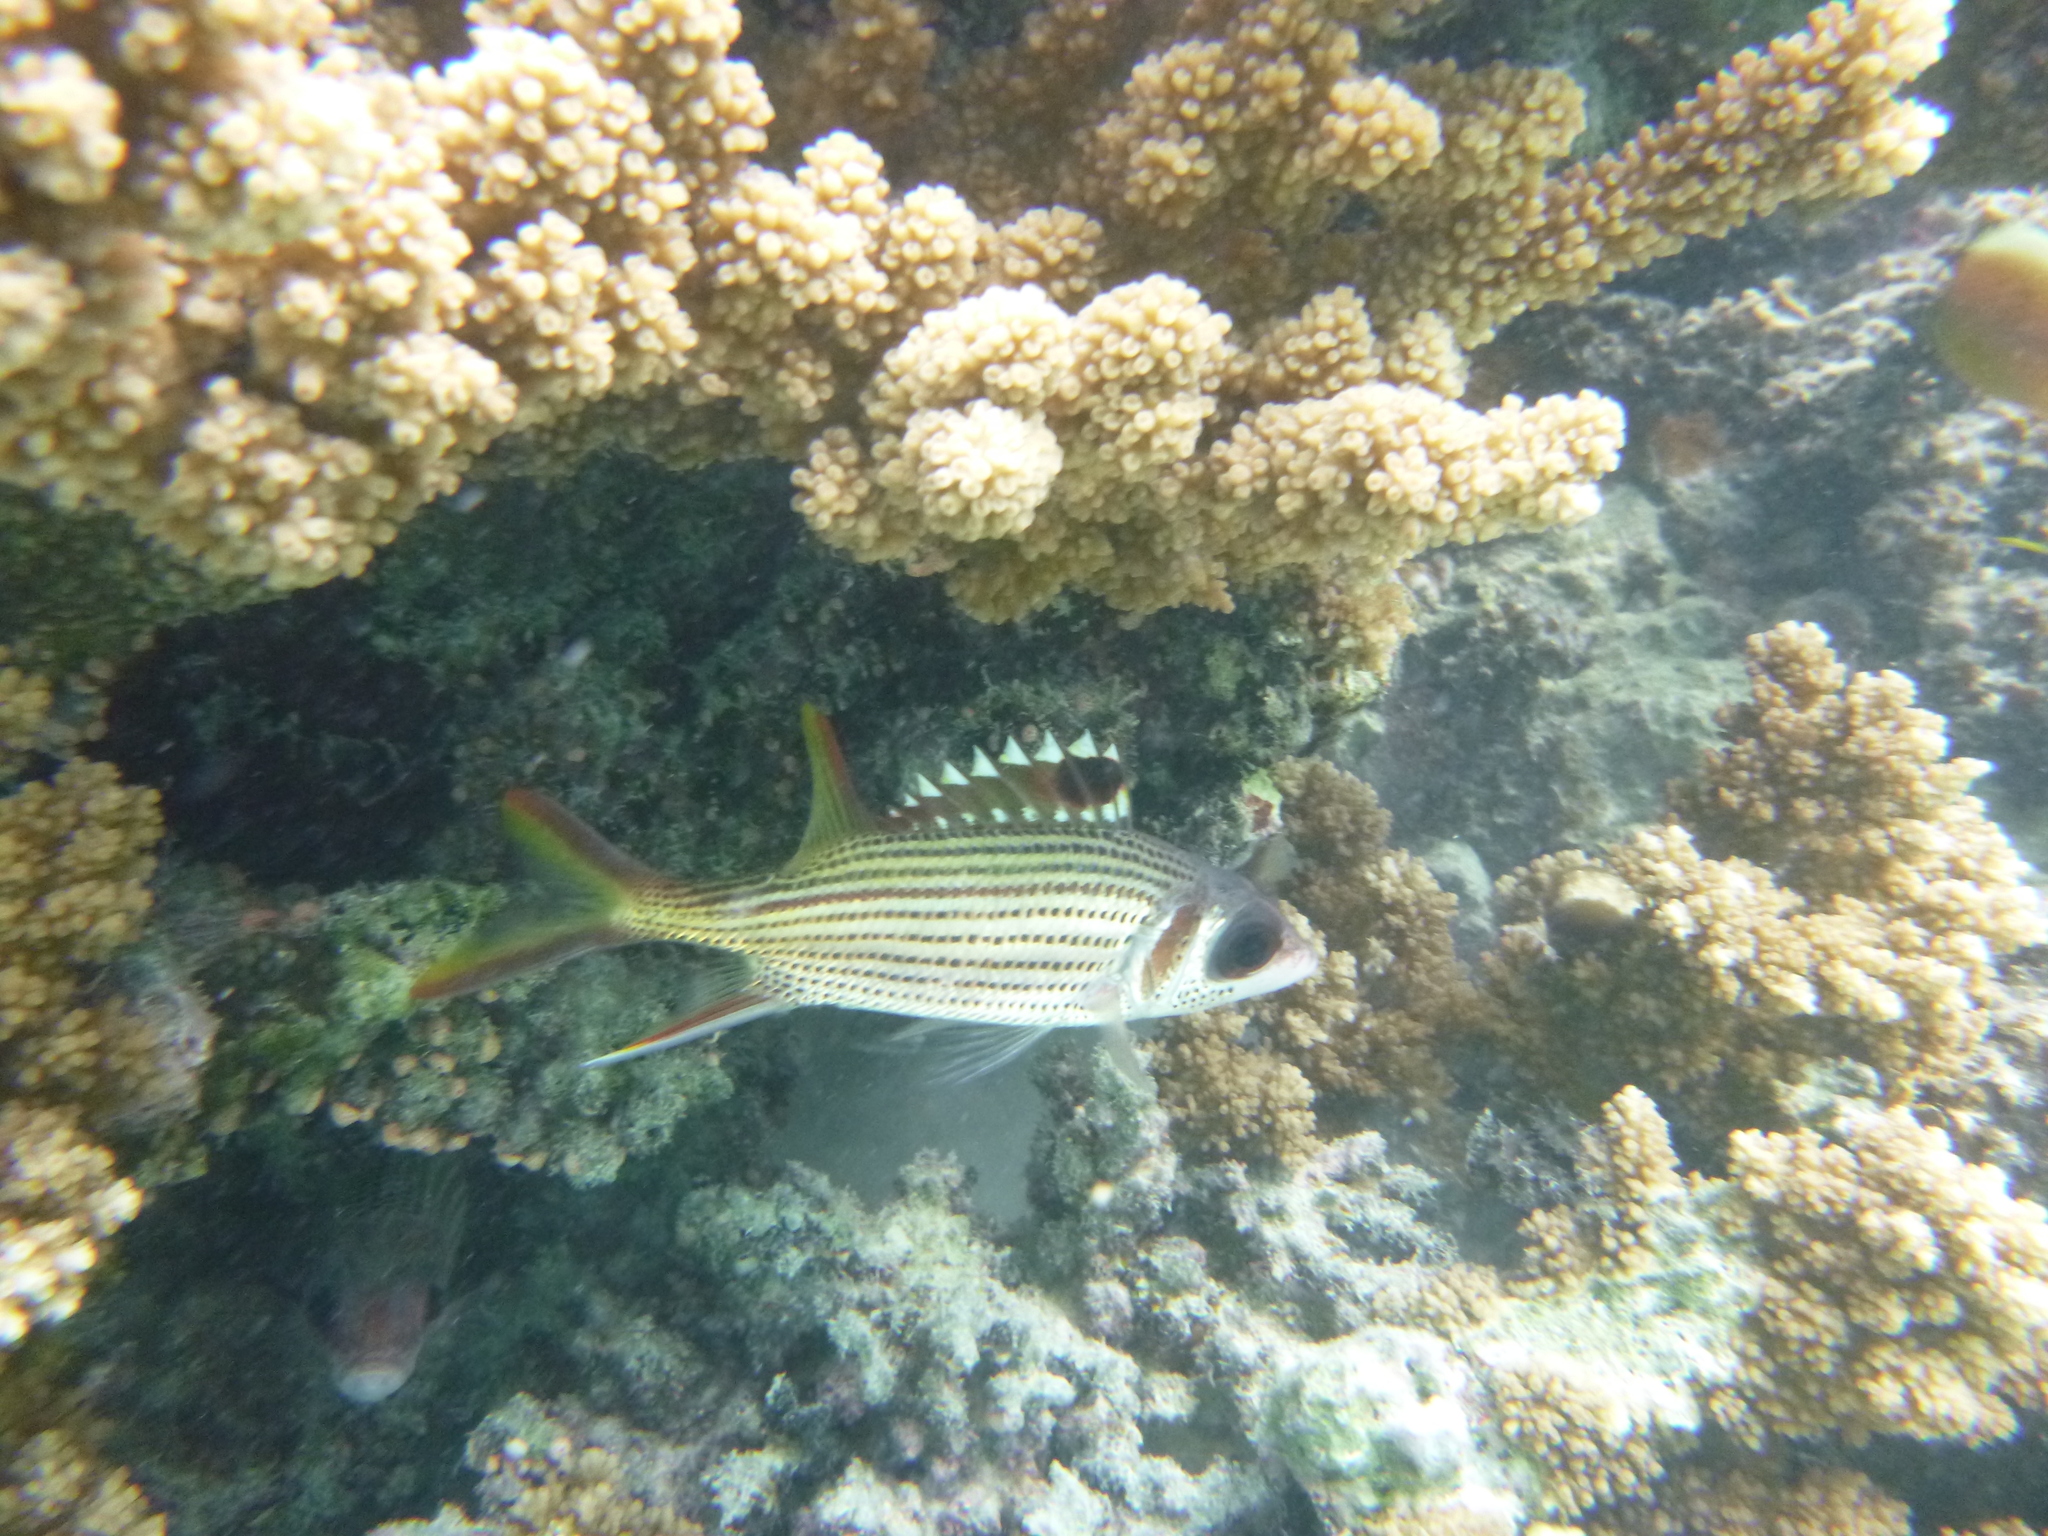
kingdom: Animalia
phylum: Chordata
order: Beryciformes
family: Holocentridae
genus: Neoniphon
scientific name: Neoniphon sammara
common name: Sammara squirrelfish
